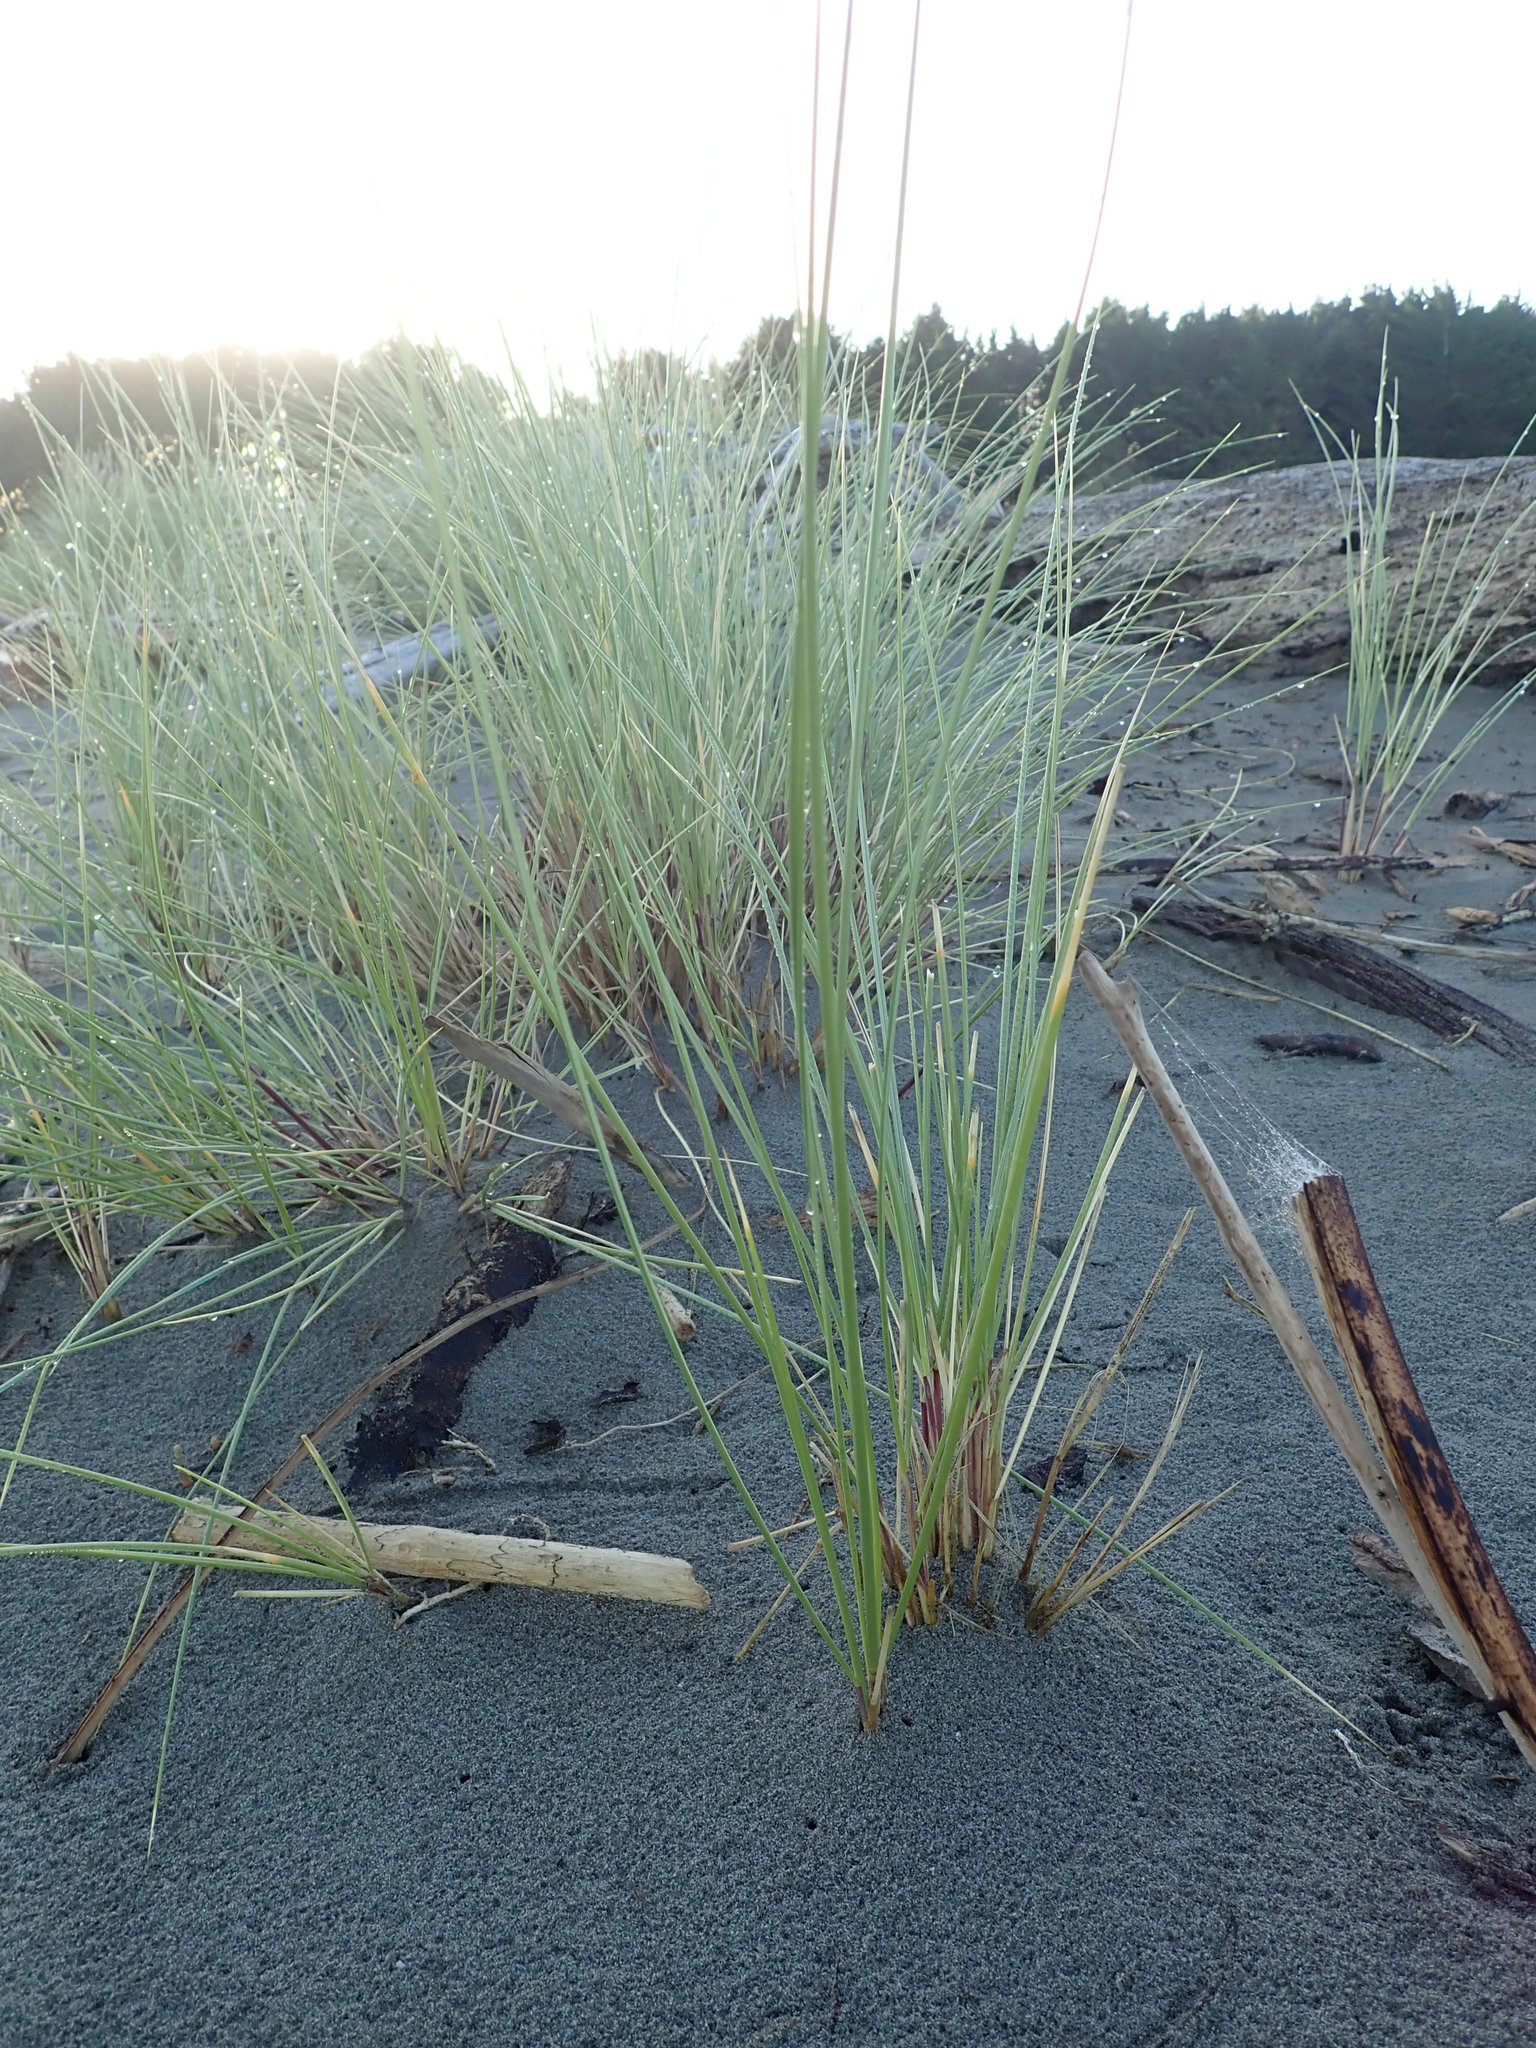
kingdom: Plantae
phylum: Tracheophyta
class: Liliopsida
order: Poales
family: Poaceae
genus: Calamagrostis
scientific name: Calamagrostis arenaria
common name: European beachgrass
